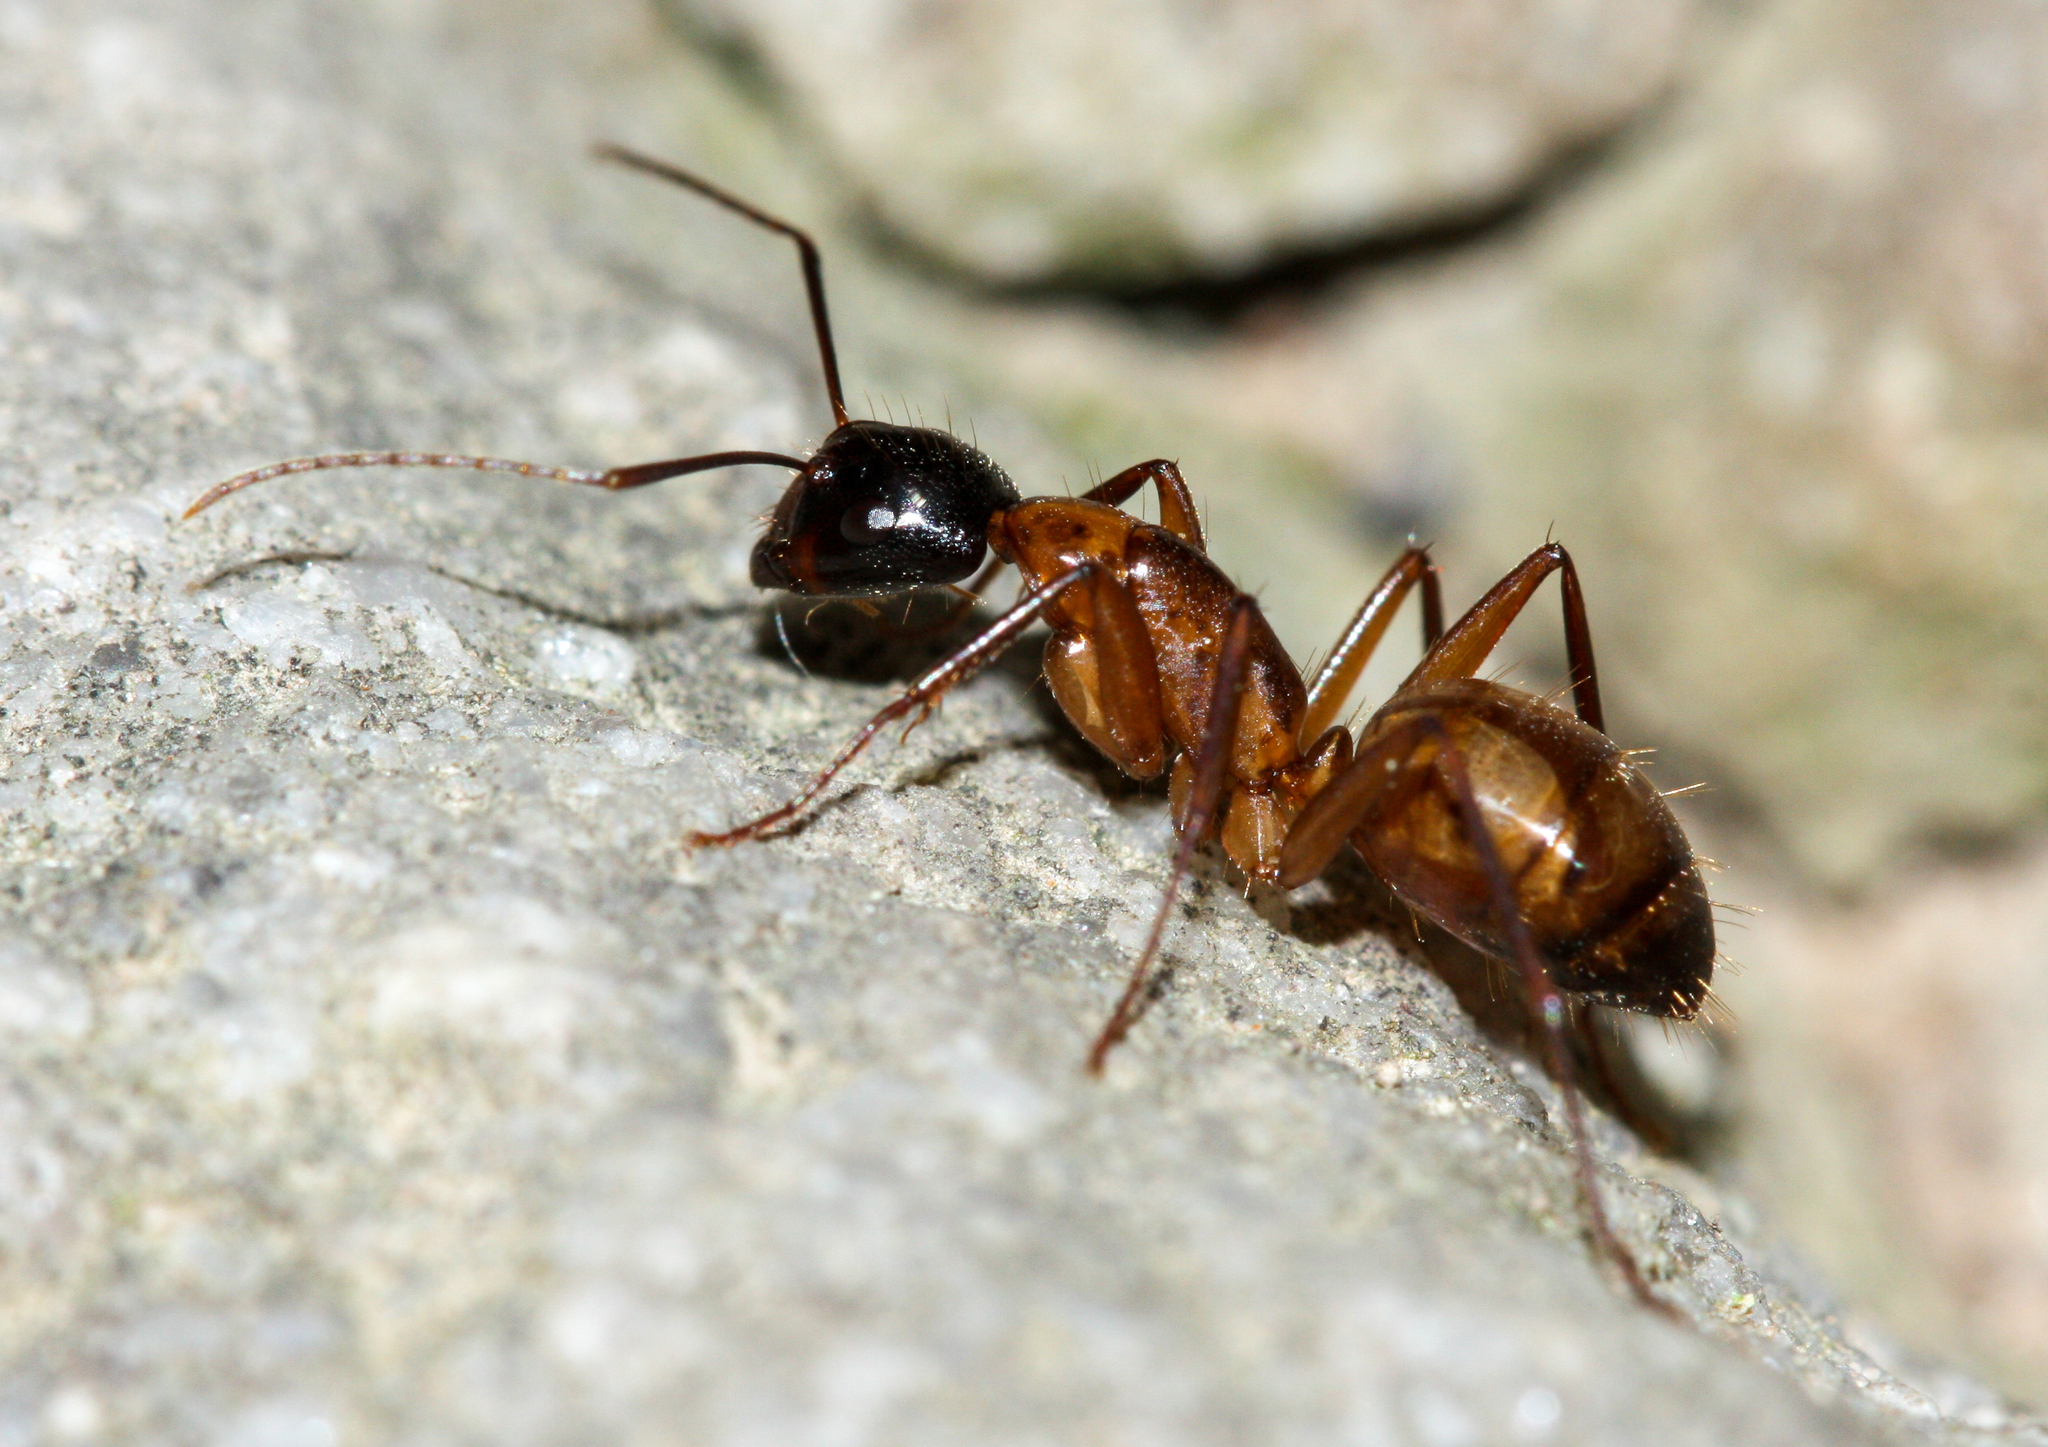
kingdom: Animalia
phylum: Arthropoda
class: Insecta
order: Hymenoptera
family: Formicidae
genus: Camponotus
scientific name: Camponotus americanus
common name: American carpenter ant
